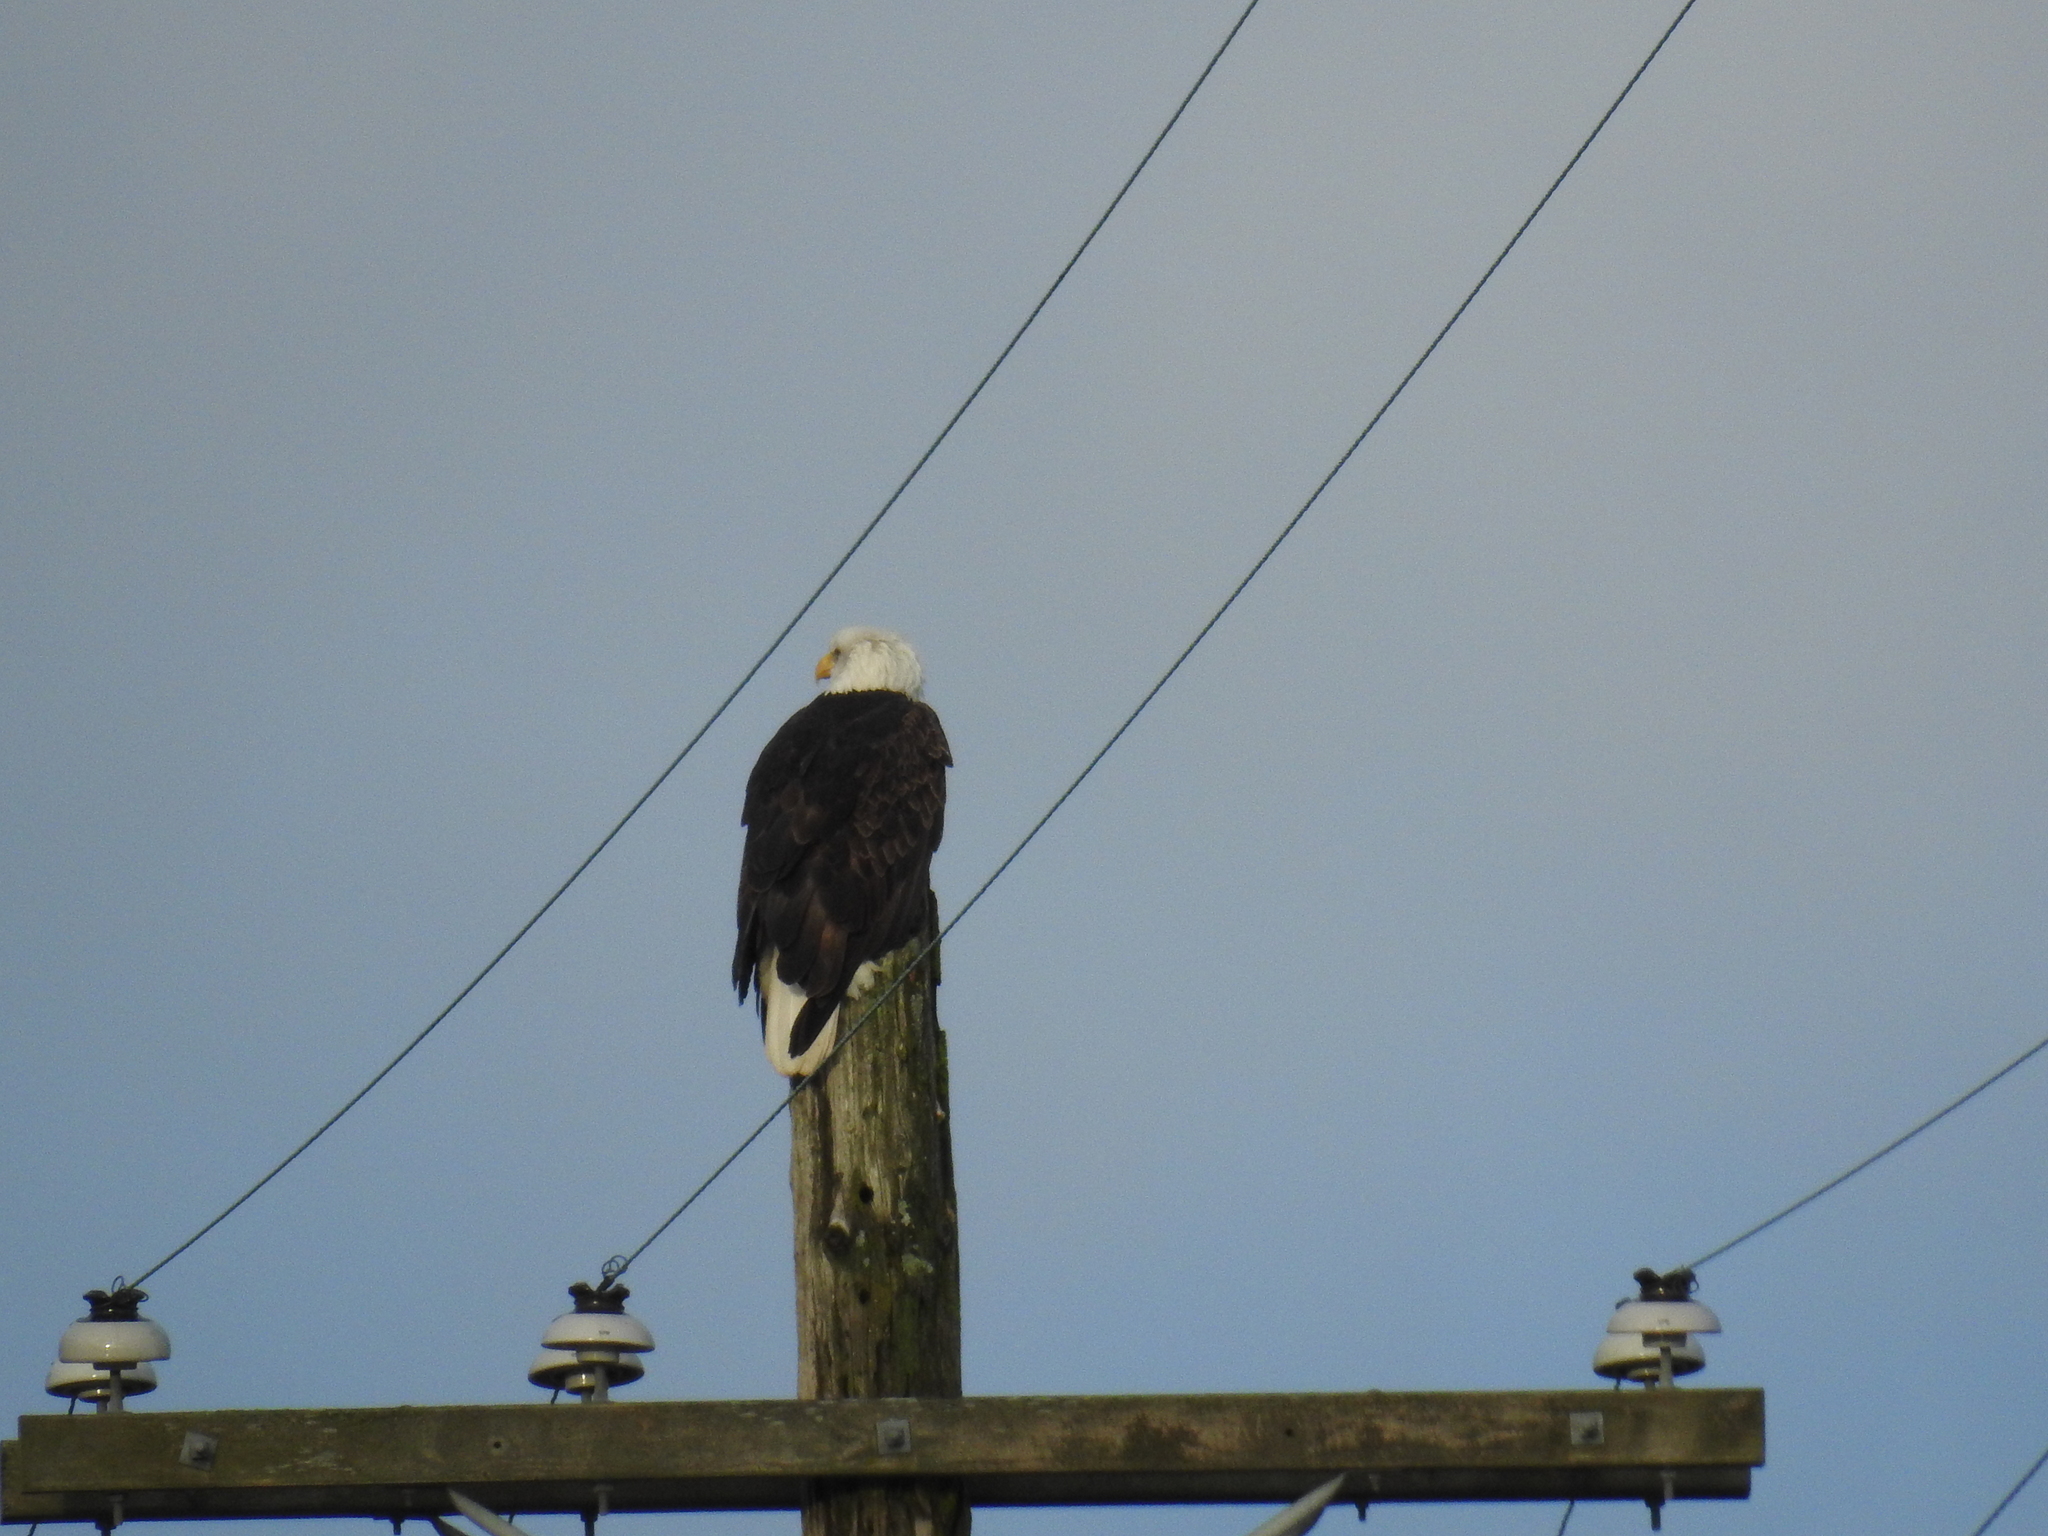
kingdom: Animalia
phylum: Chordata
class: Aves
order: Accipitriformes
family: Accipitridae
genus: Haliaeetus
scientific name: Haliaeetus leucocephalus
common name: Bald eagle
